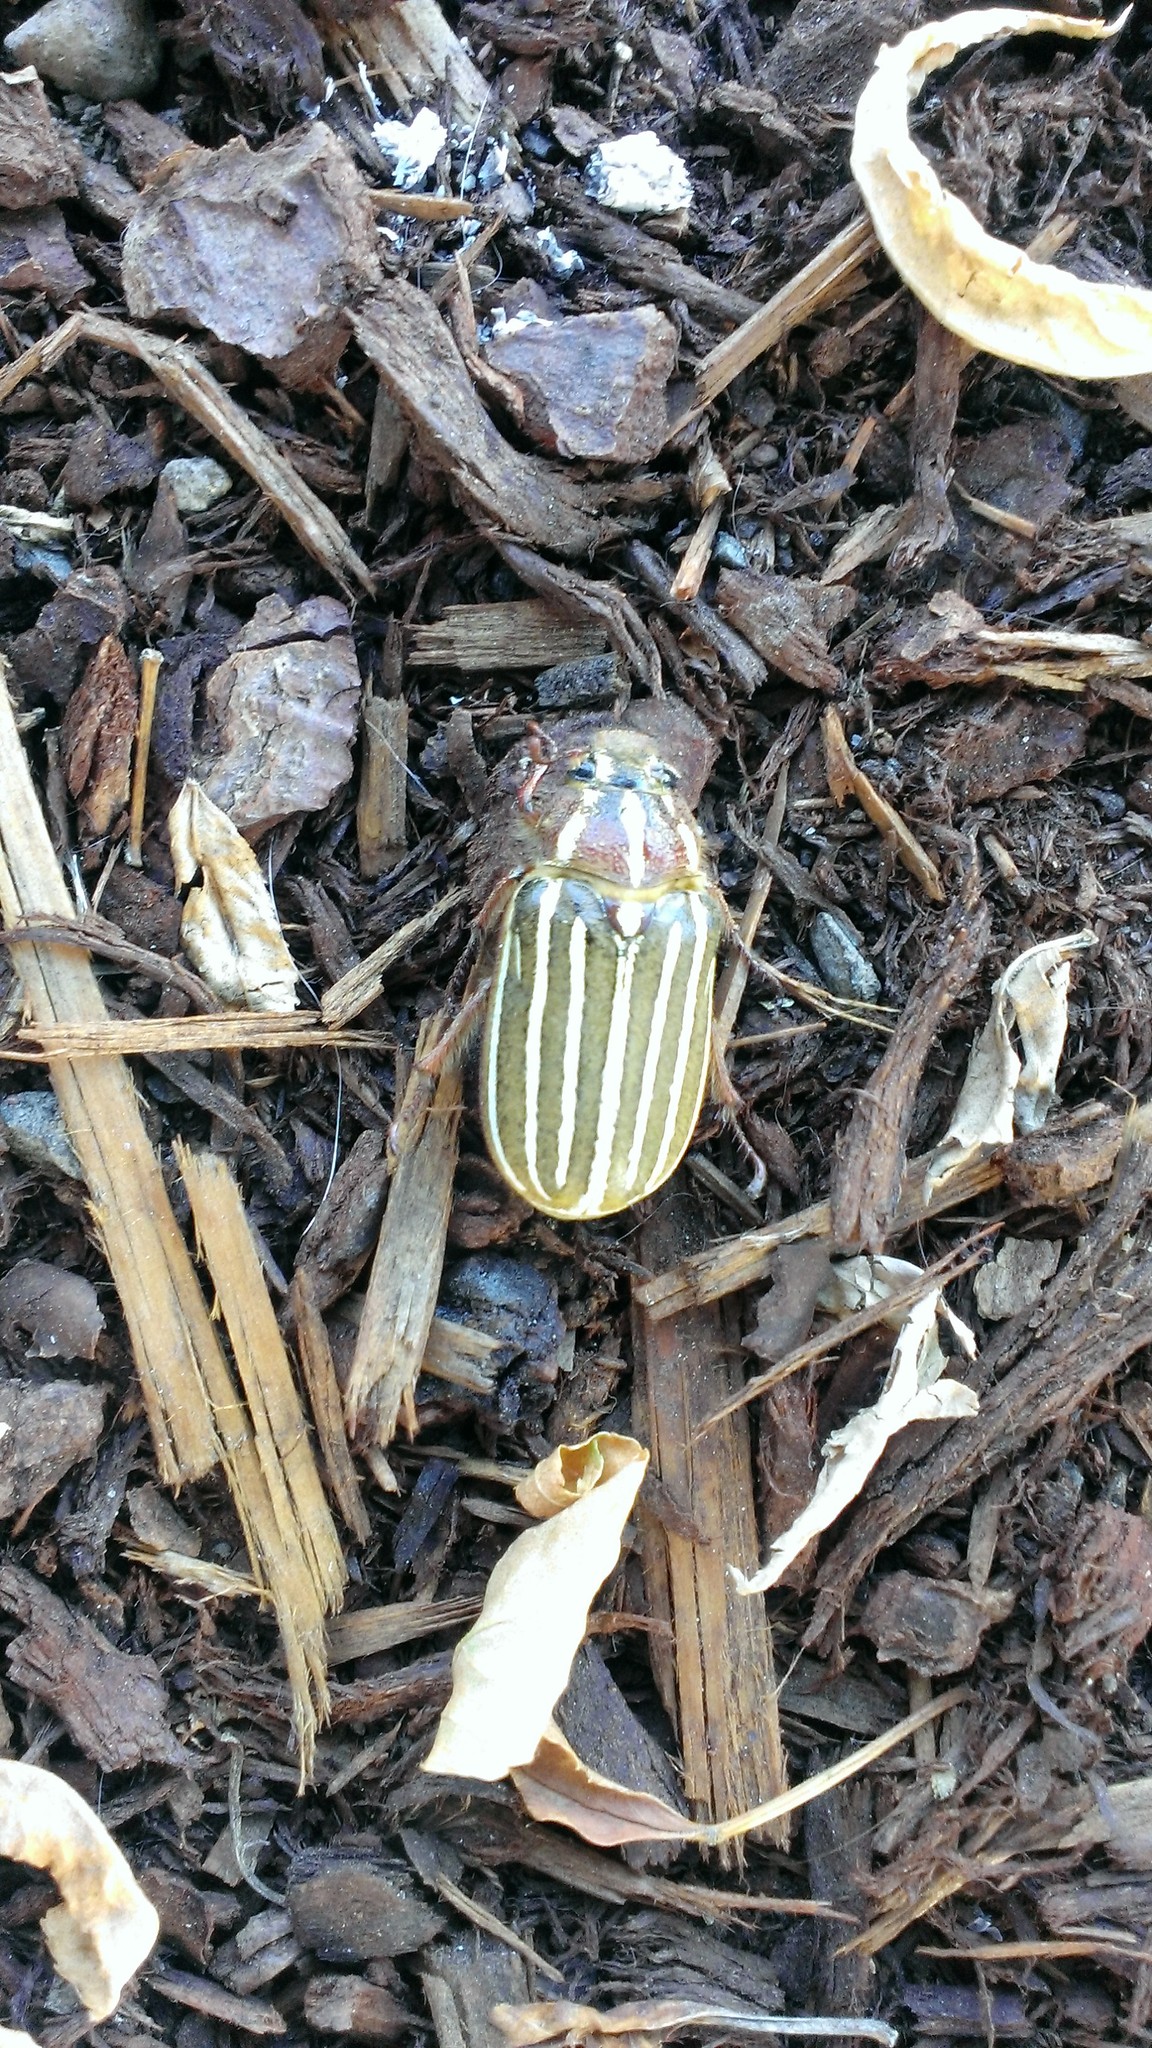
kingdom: Animalia
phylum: Arthropoda
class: Insecta
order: Coleoptera
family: Scarabaeidae
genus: Polyphylla
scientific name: Polyphylla crinita
